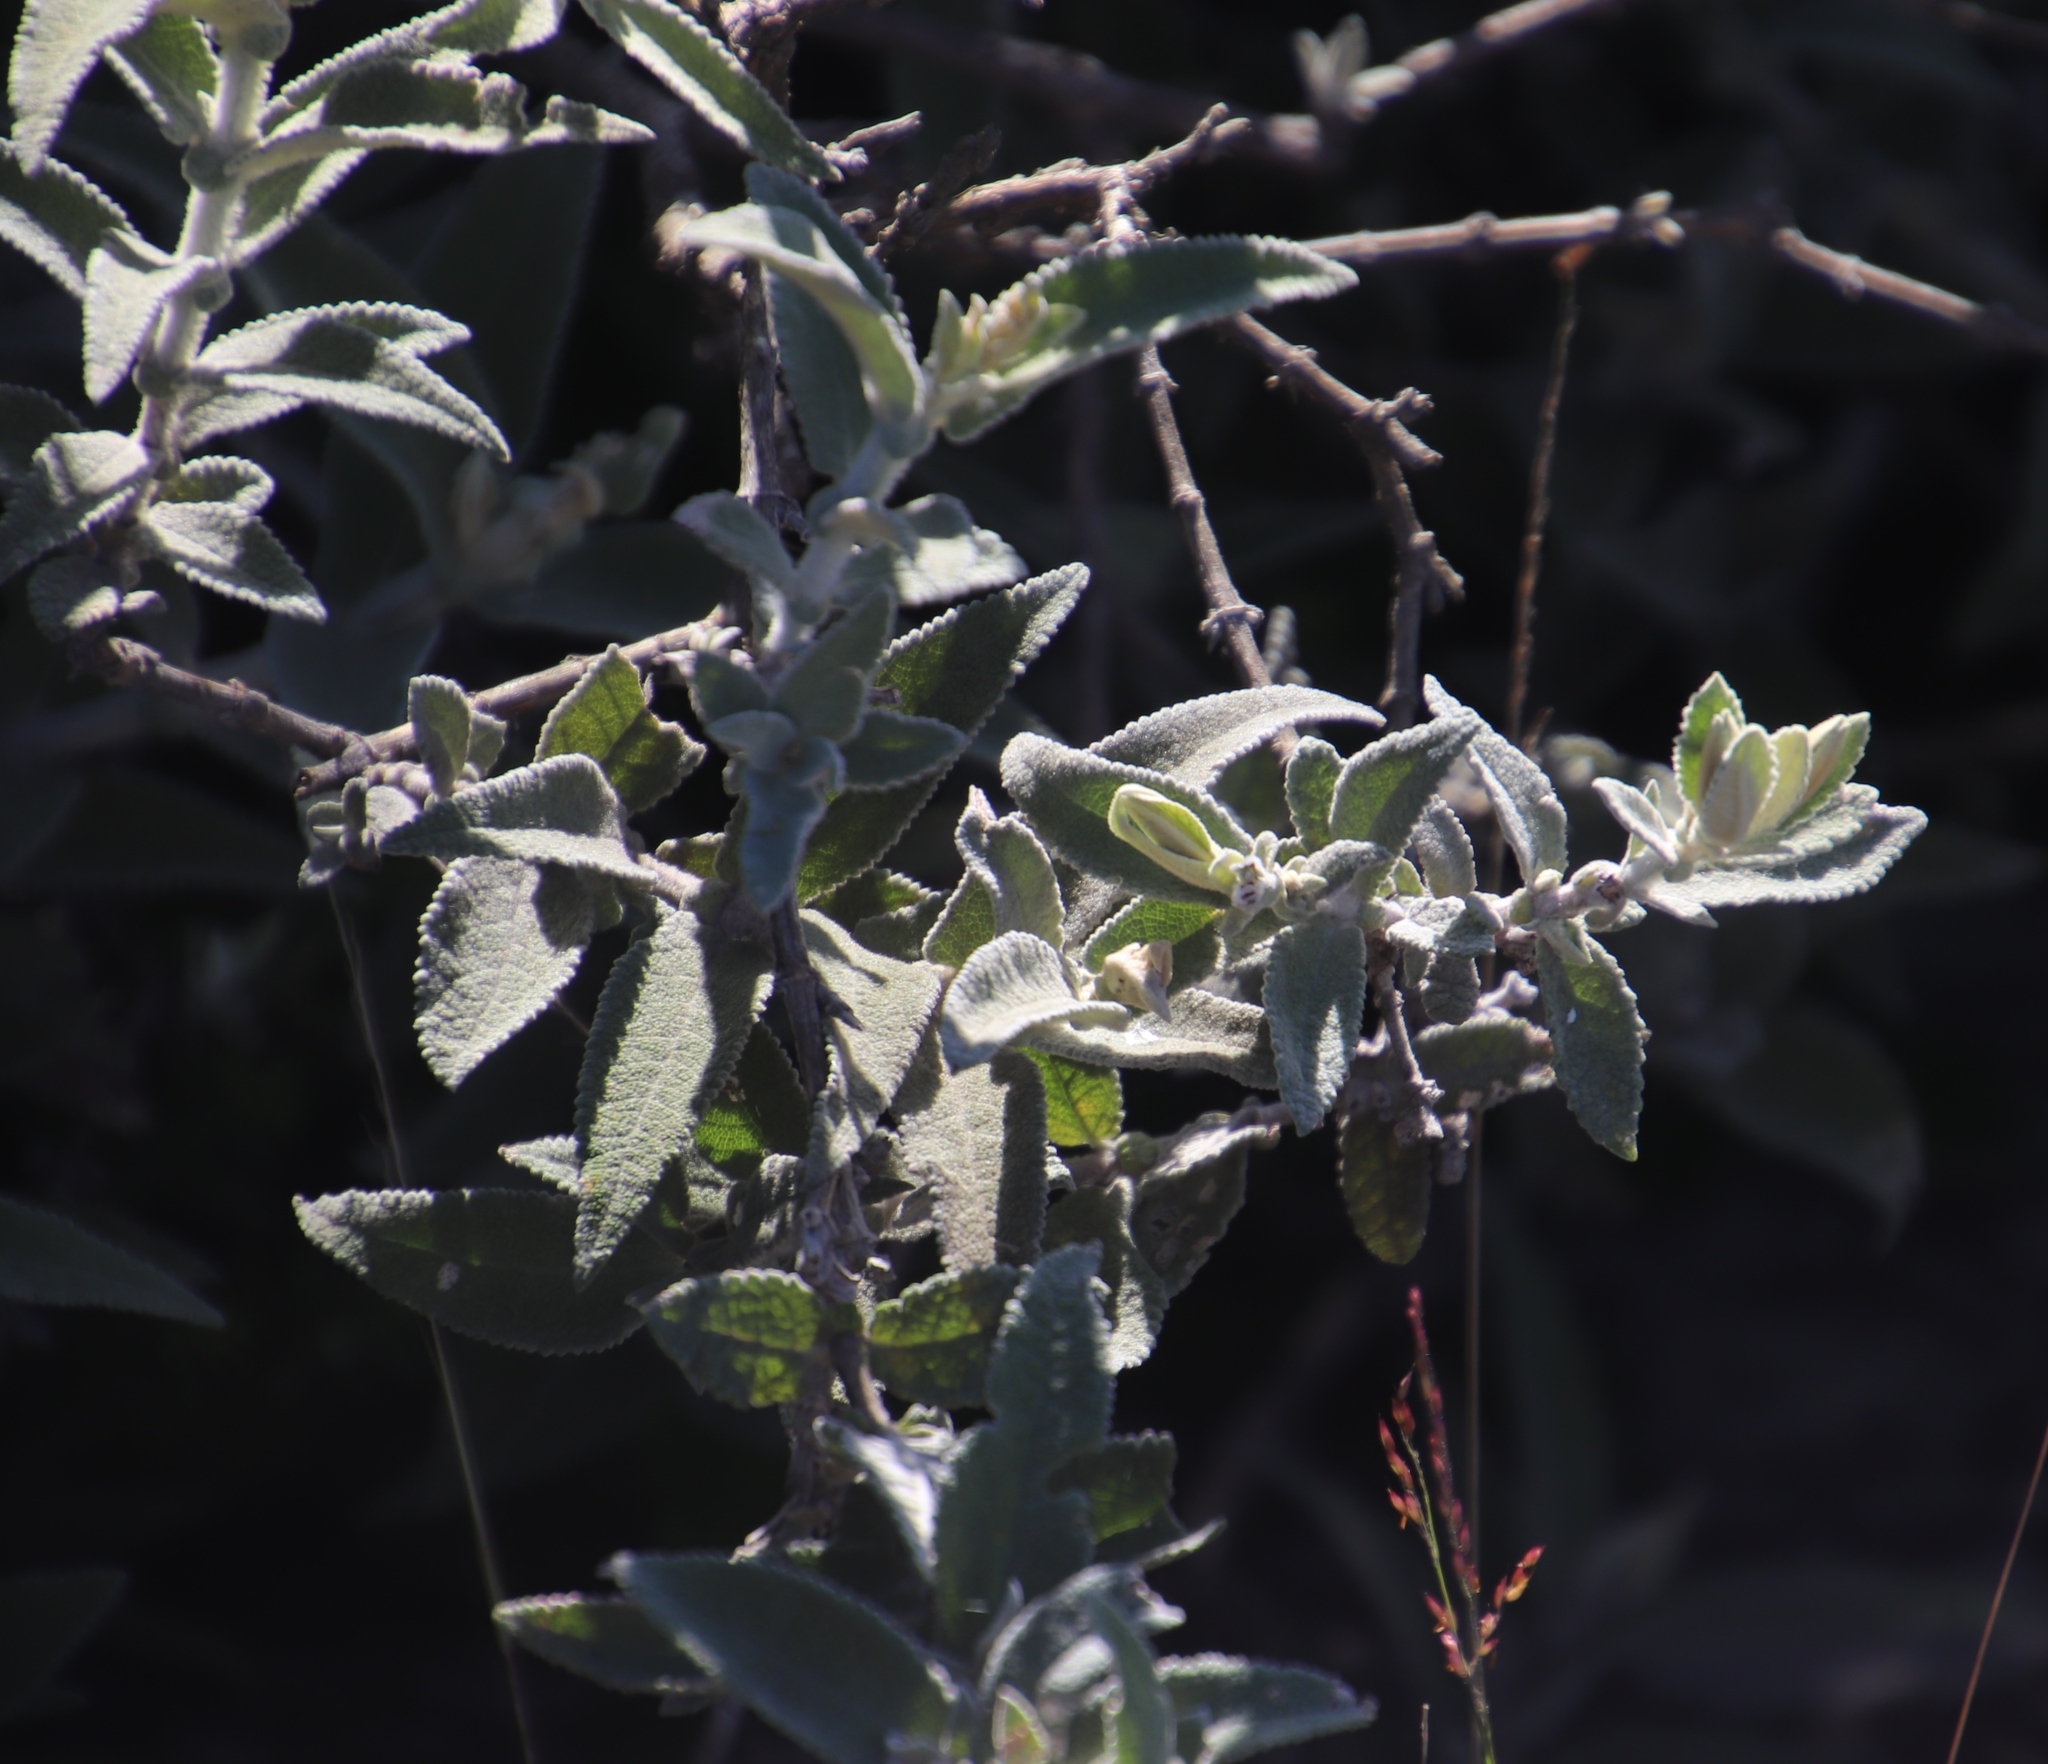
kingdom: Plantae
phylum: Tracheophyta
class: Magnoliopsida
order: Lamiales
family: Scrophulariaceae
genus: Buddleja
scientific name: Buddleja salviifolia
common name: Sagewood
